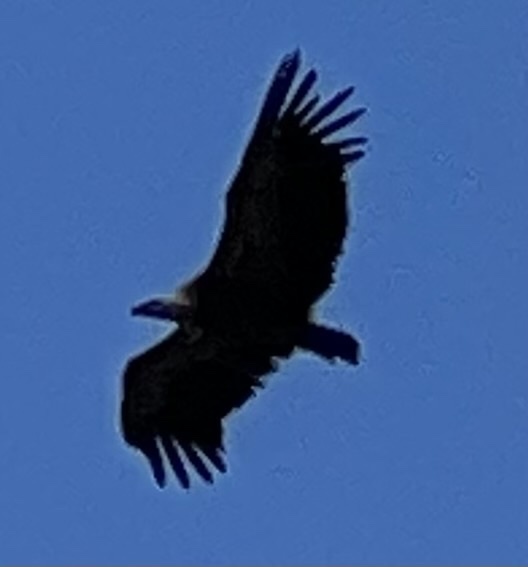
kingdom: Animalia
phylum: Chordata
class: Aves
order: Accipitriformes
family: Accipitridae
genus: Gyps
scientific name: Gyps fulvus
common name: Griffon vulture
